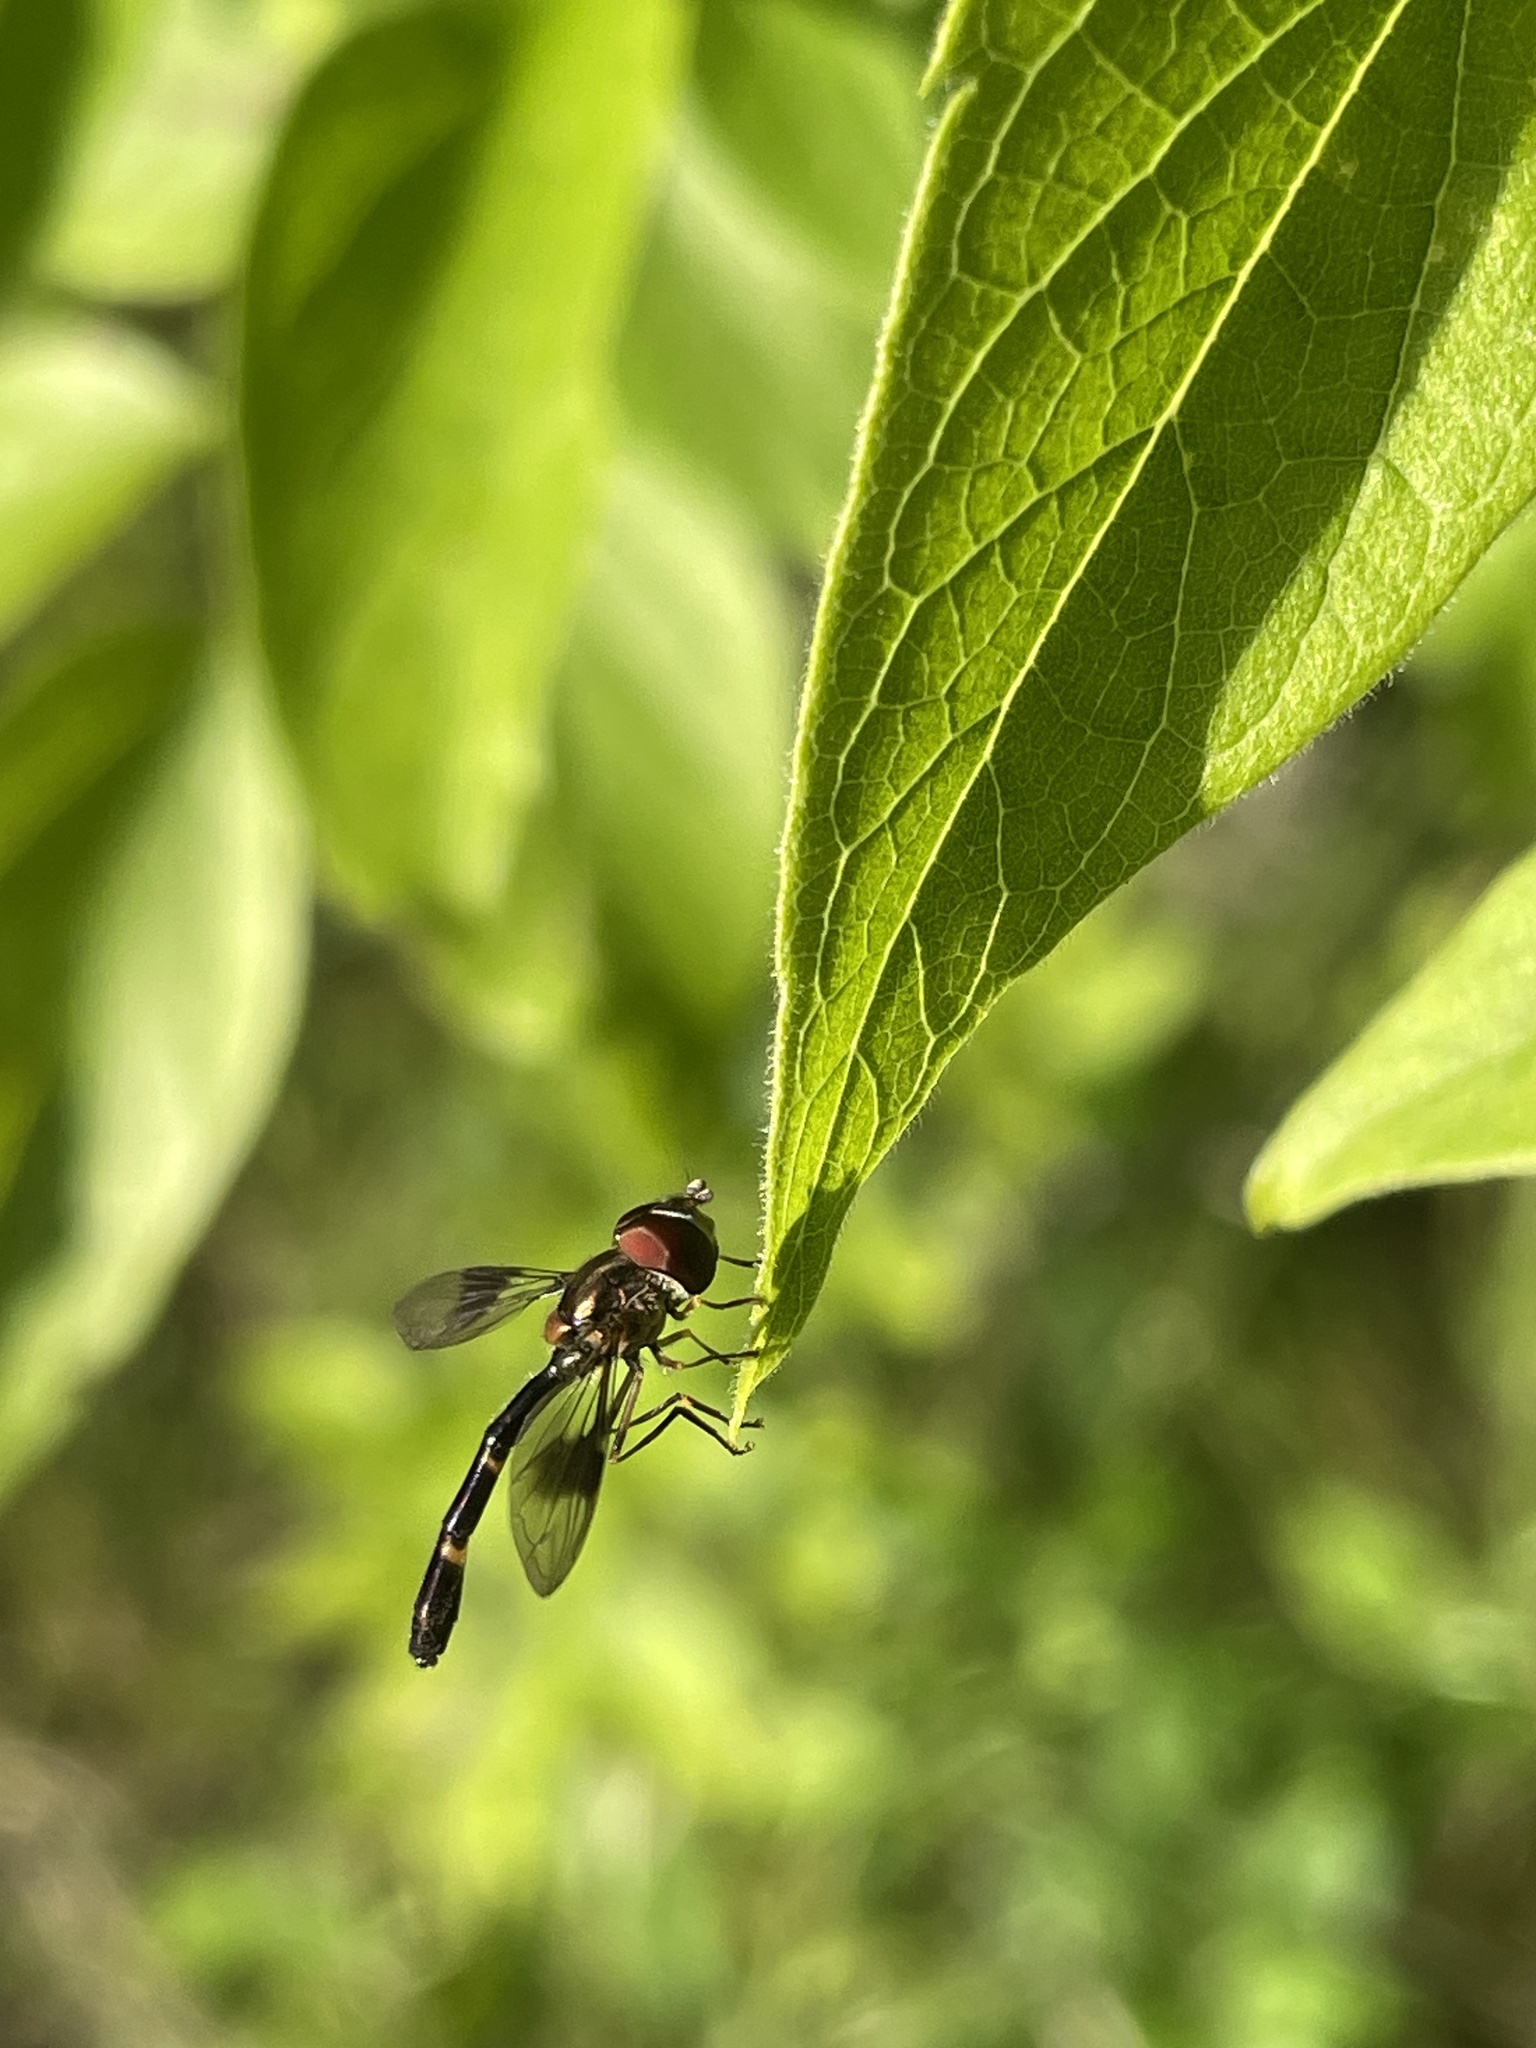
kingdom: Animalia
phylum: Arthropoda
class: Insecta
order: Diptera
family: Syrphidae
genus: Hypocritanus
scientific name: Hypocritanus fascipennis
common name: Eastern band-winged hover fly
